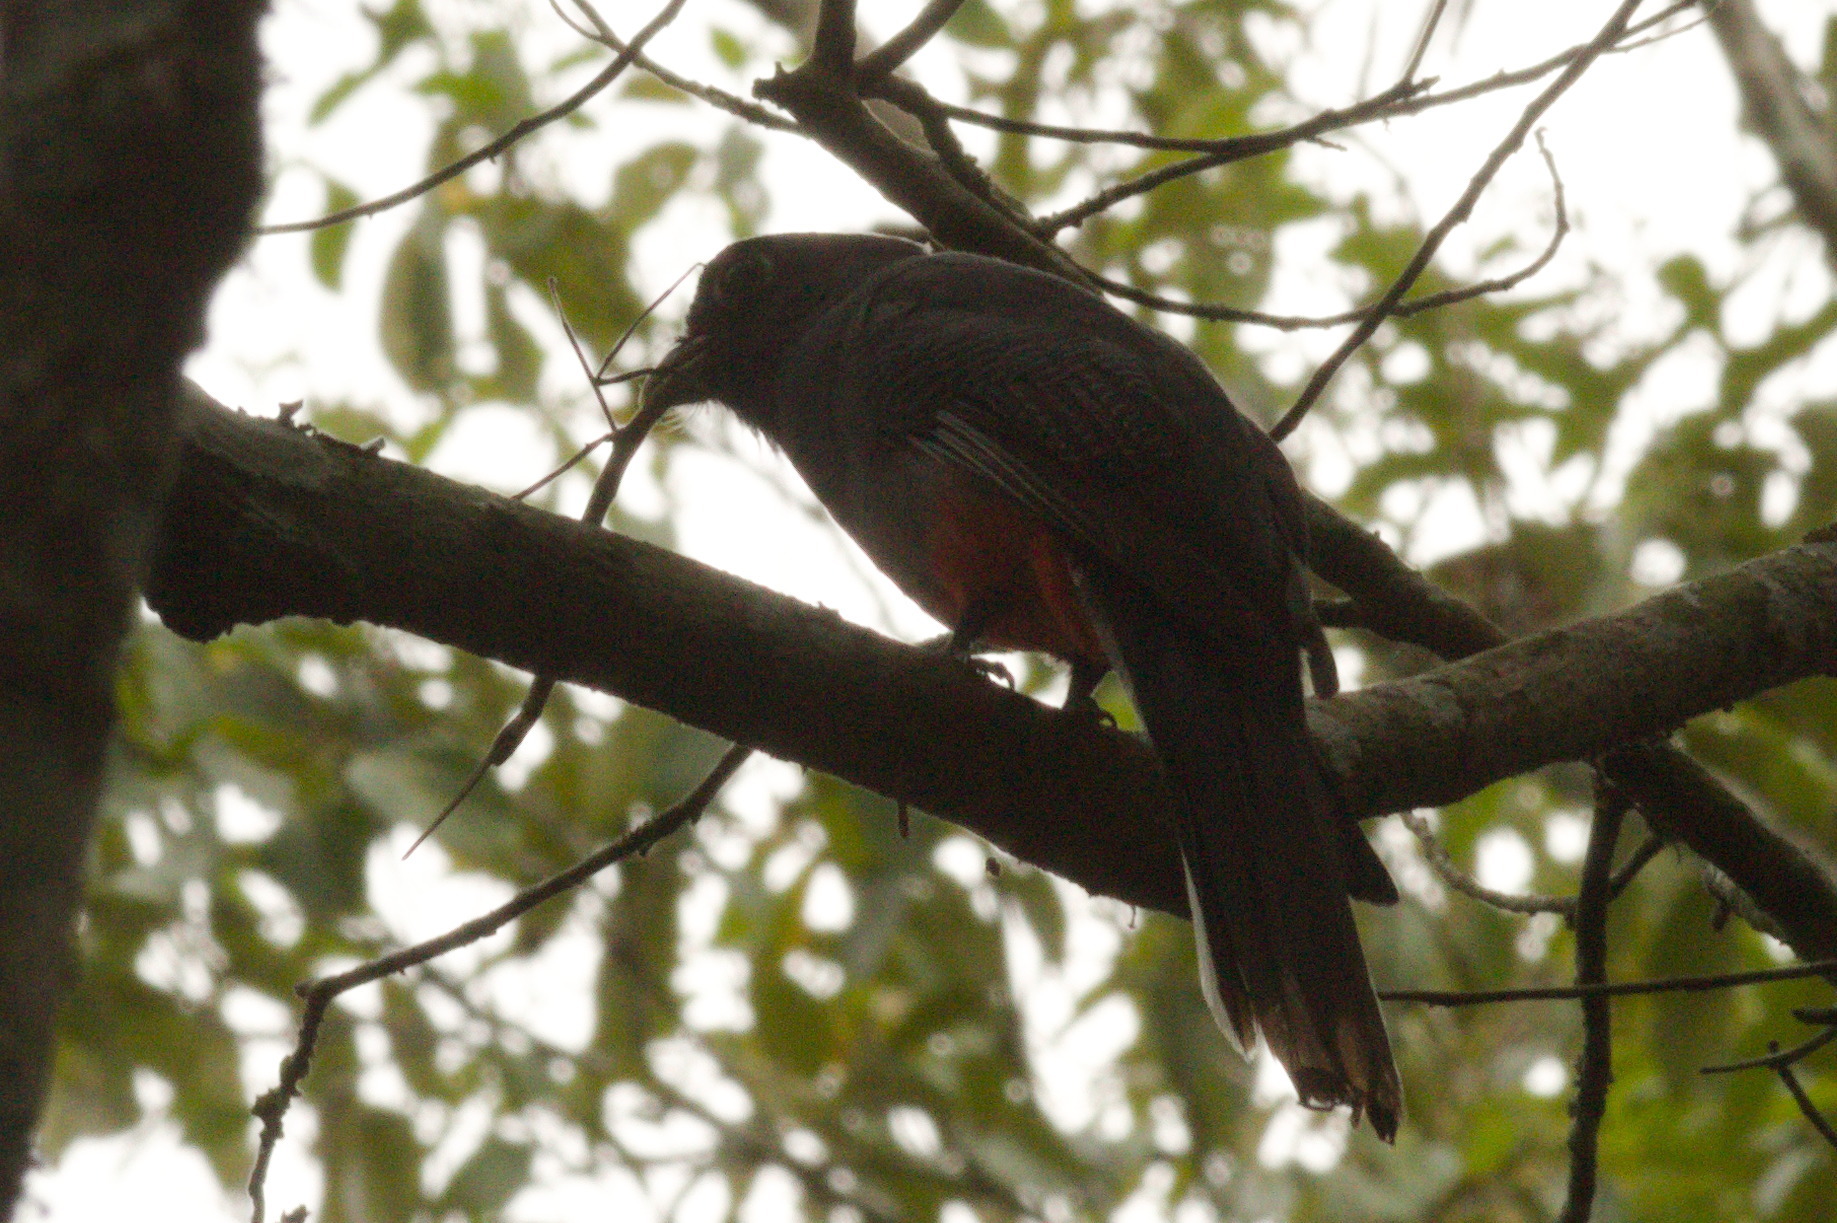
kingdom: Animalia
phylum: Chordata
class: Aves
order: Trogoniformes
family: Trogonidae
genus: Trogon
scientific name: Trogon surrucura
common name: Surucua trogon
